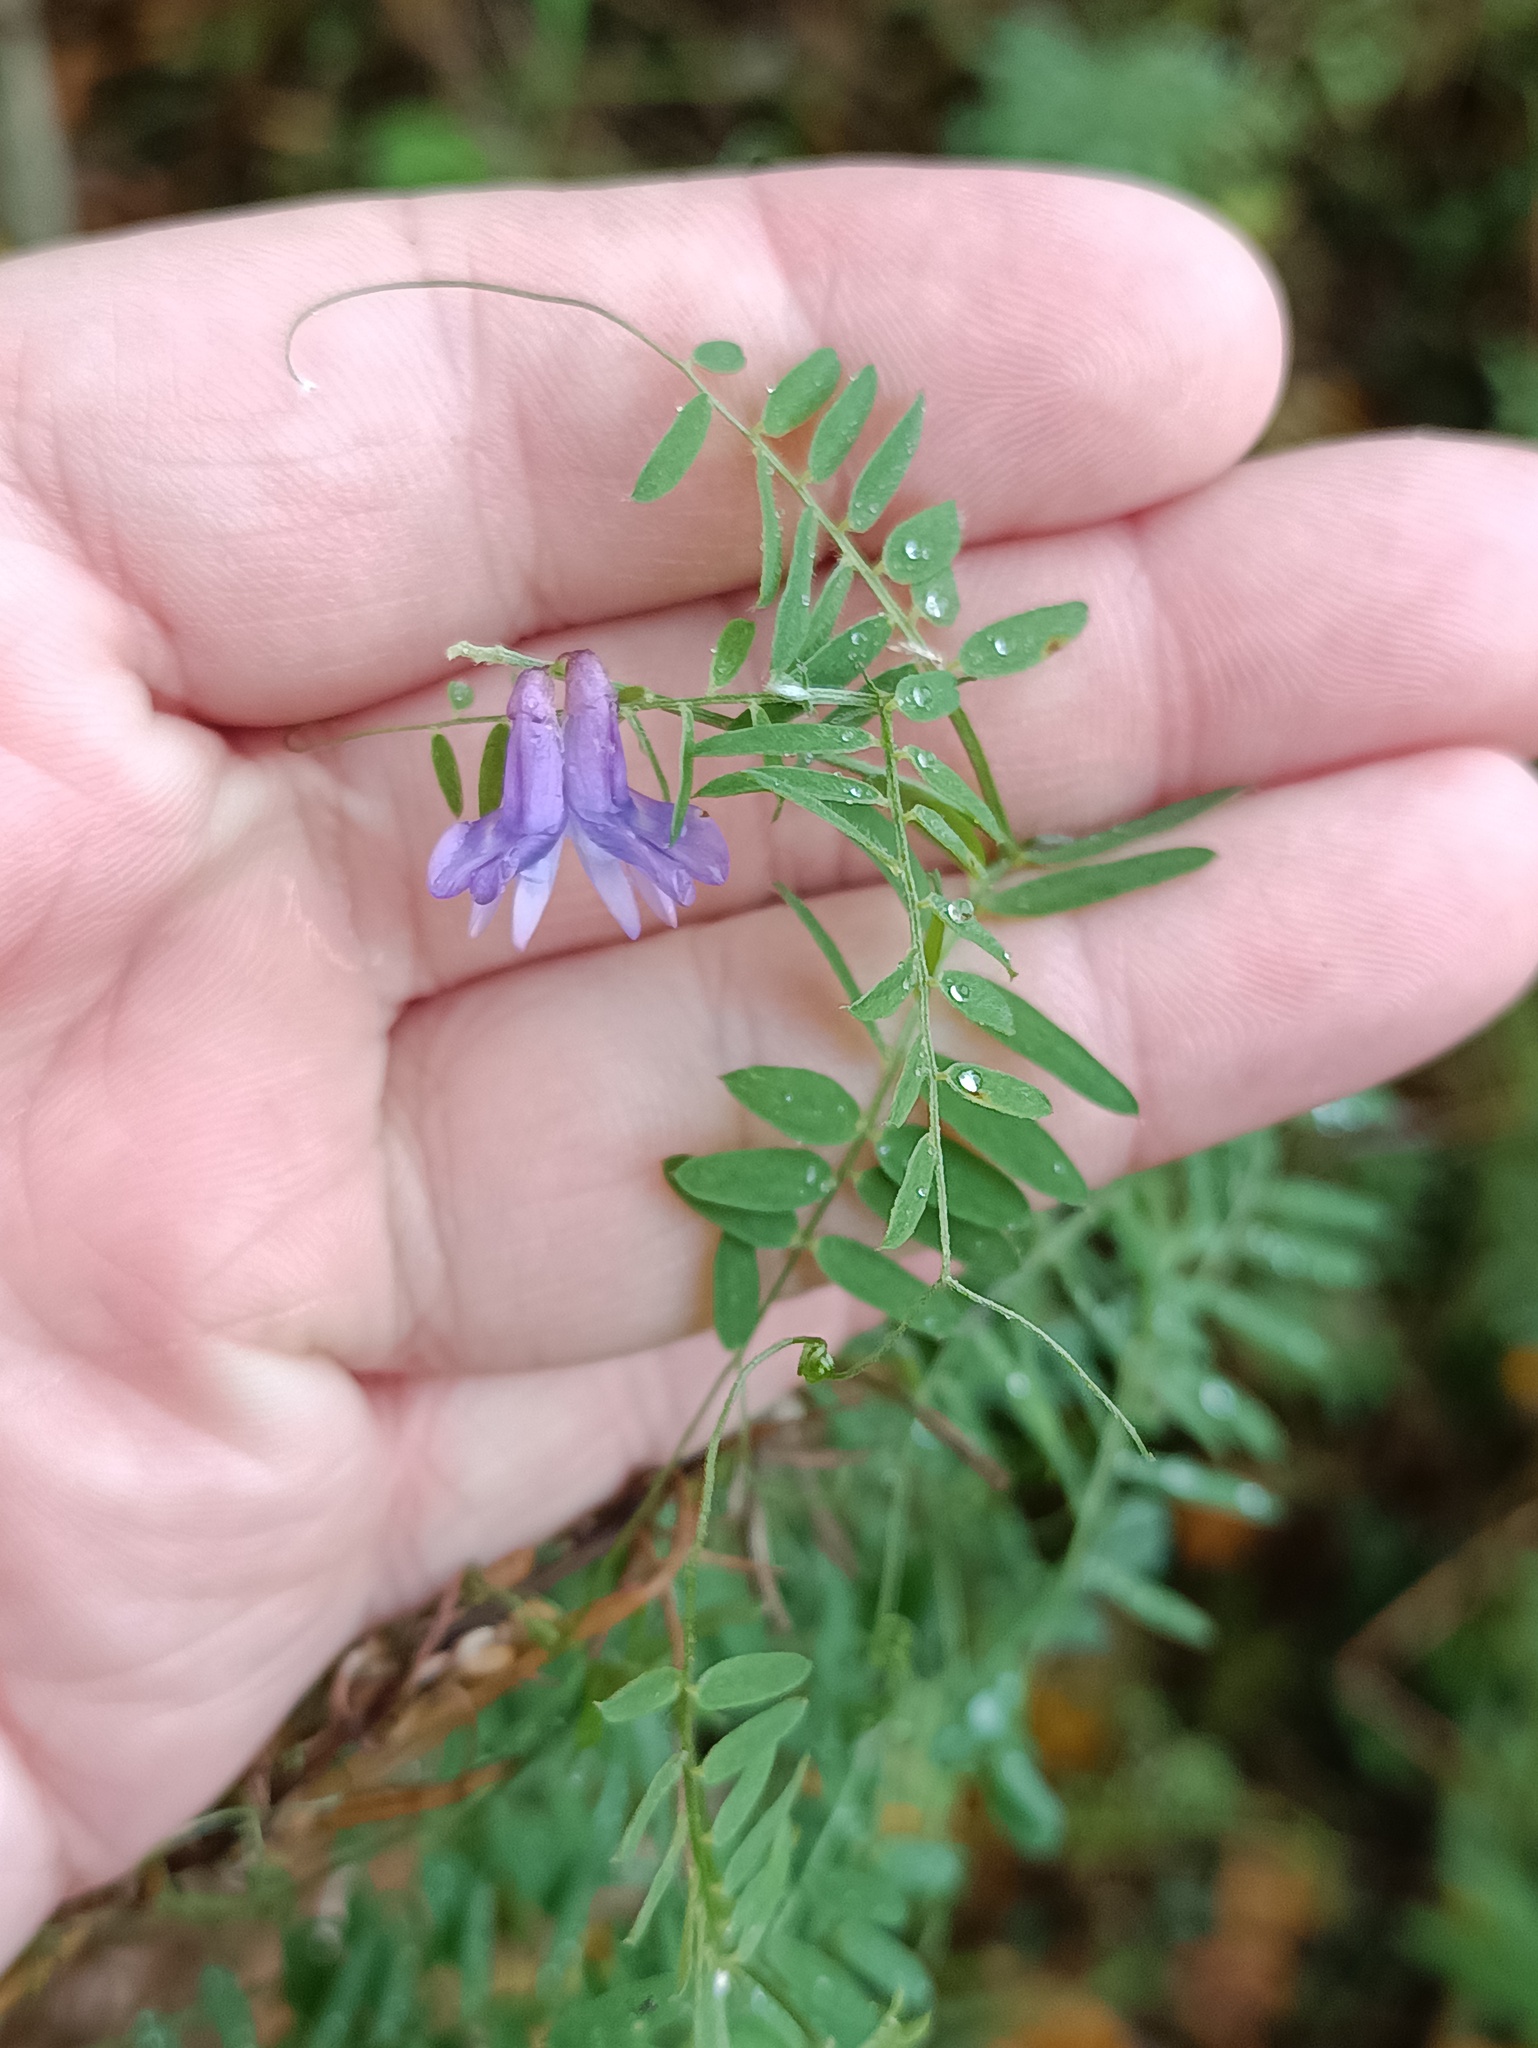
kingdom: Plantae
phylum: Tracheophyta
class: Magnoliopsida
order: Fabales
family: Fabaceae
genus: Vicia
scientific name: Vicia cracca
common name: Bird vetch
